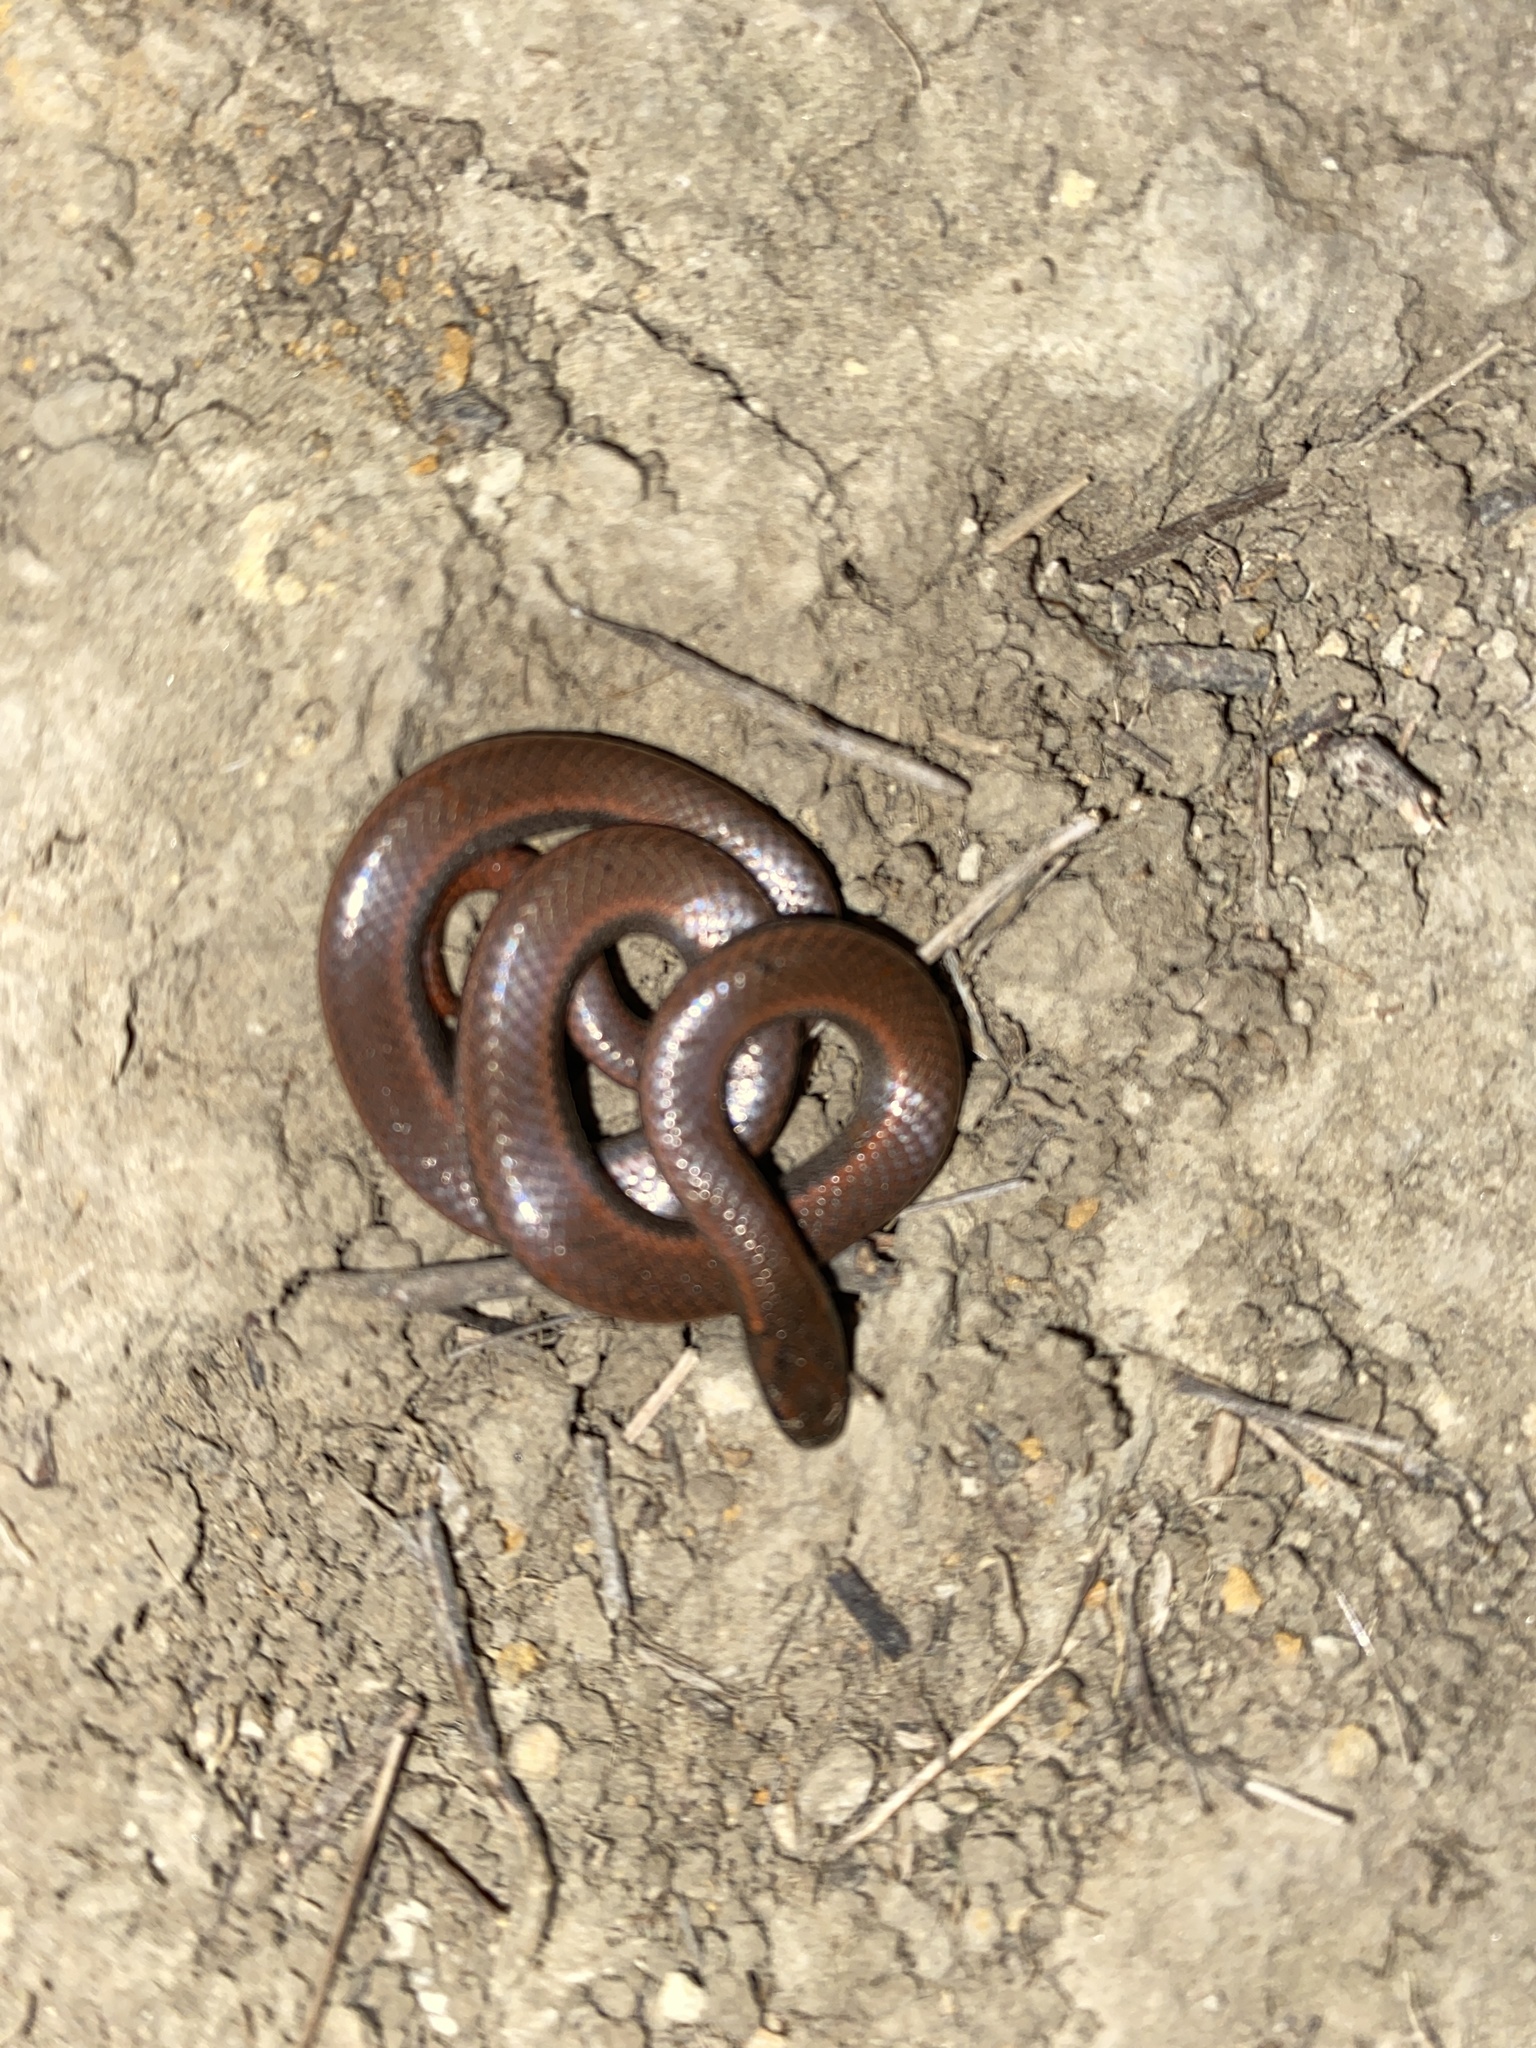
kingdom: Animalia
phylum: Chordata
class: Squamata
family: Colubridae
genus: Contia
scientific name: Contia tenuis
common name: Sharptail snake
